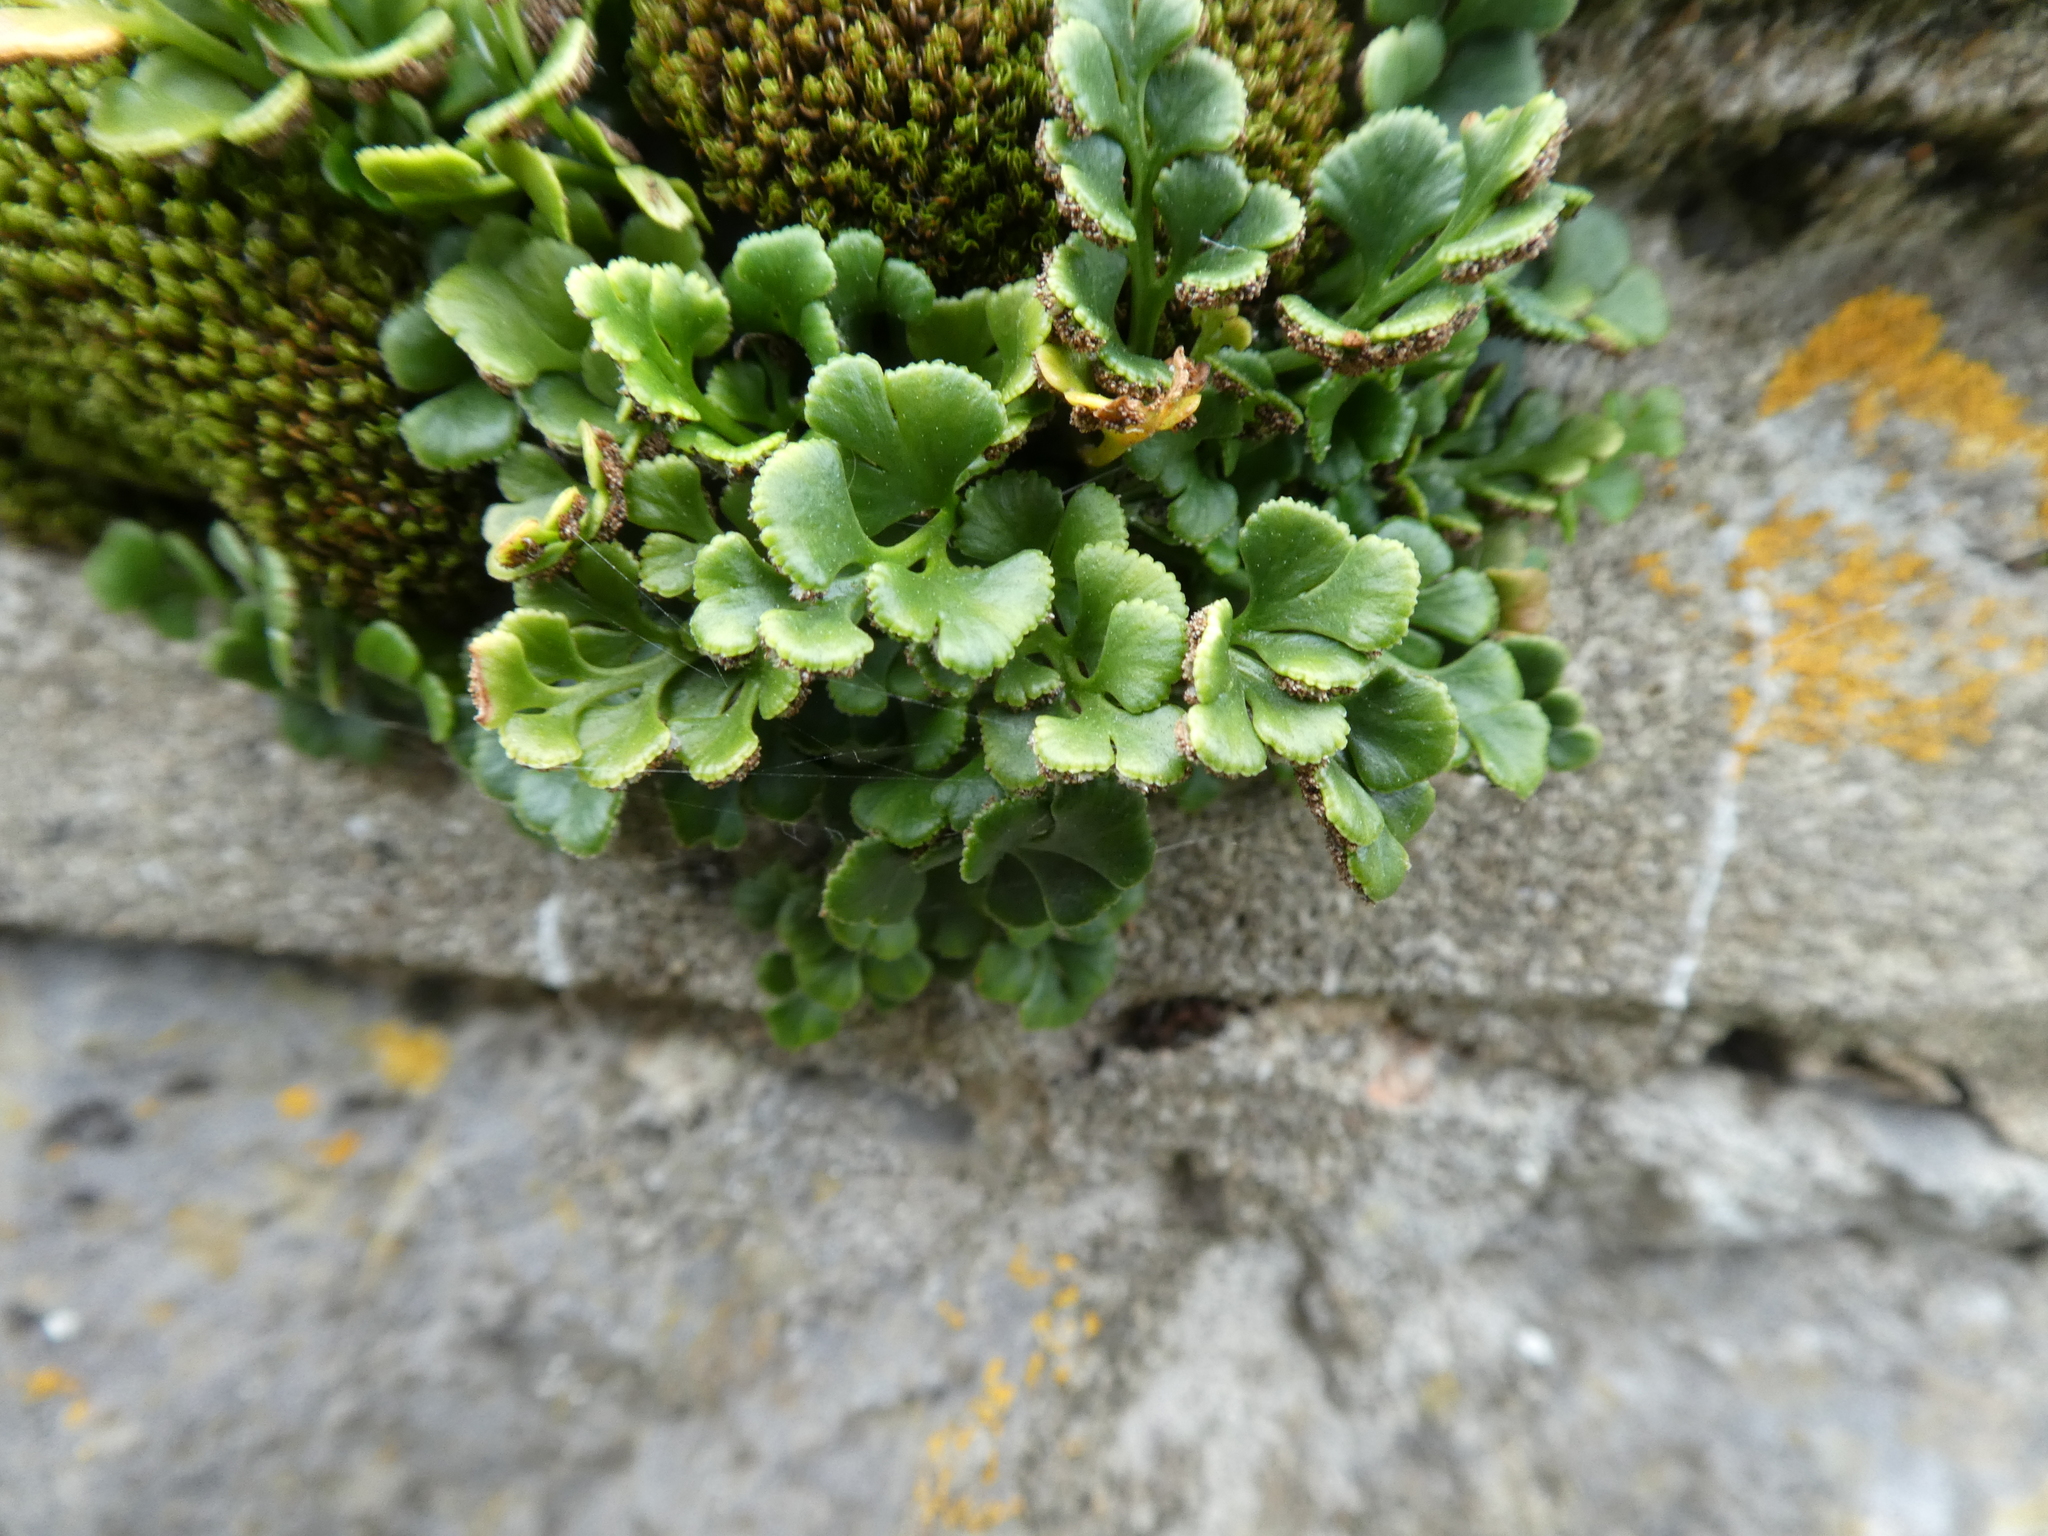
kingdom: Plantae
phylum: Tracheophyta
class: Polypodiopsida
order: Polypodiales
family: Aspleniaceae
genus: Asplenium
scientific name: Asplenium ruta-muraria
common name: Wall-rue
